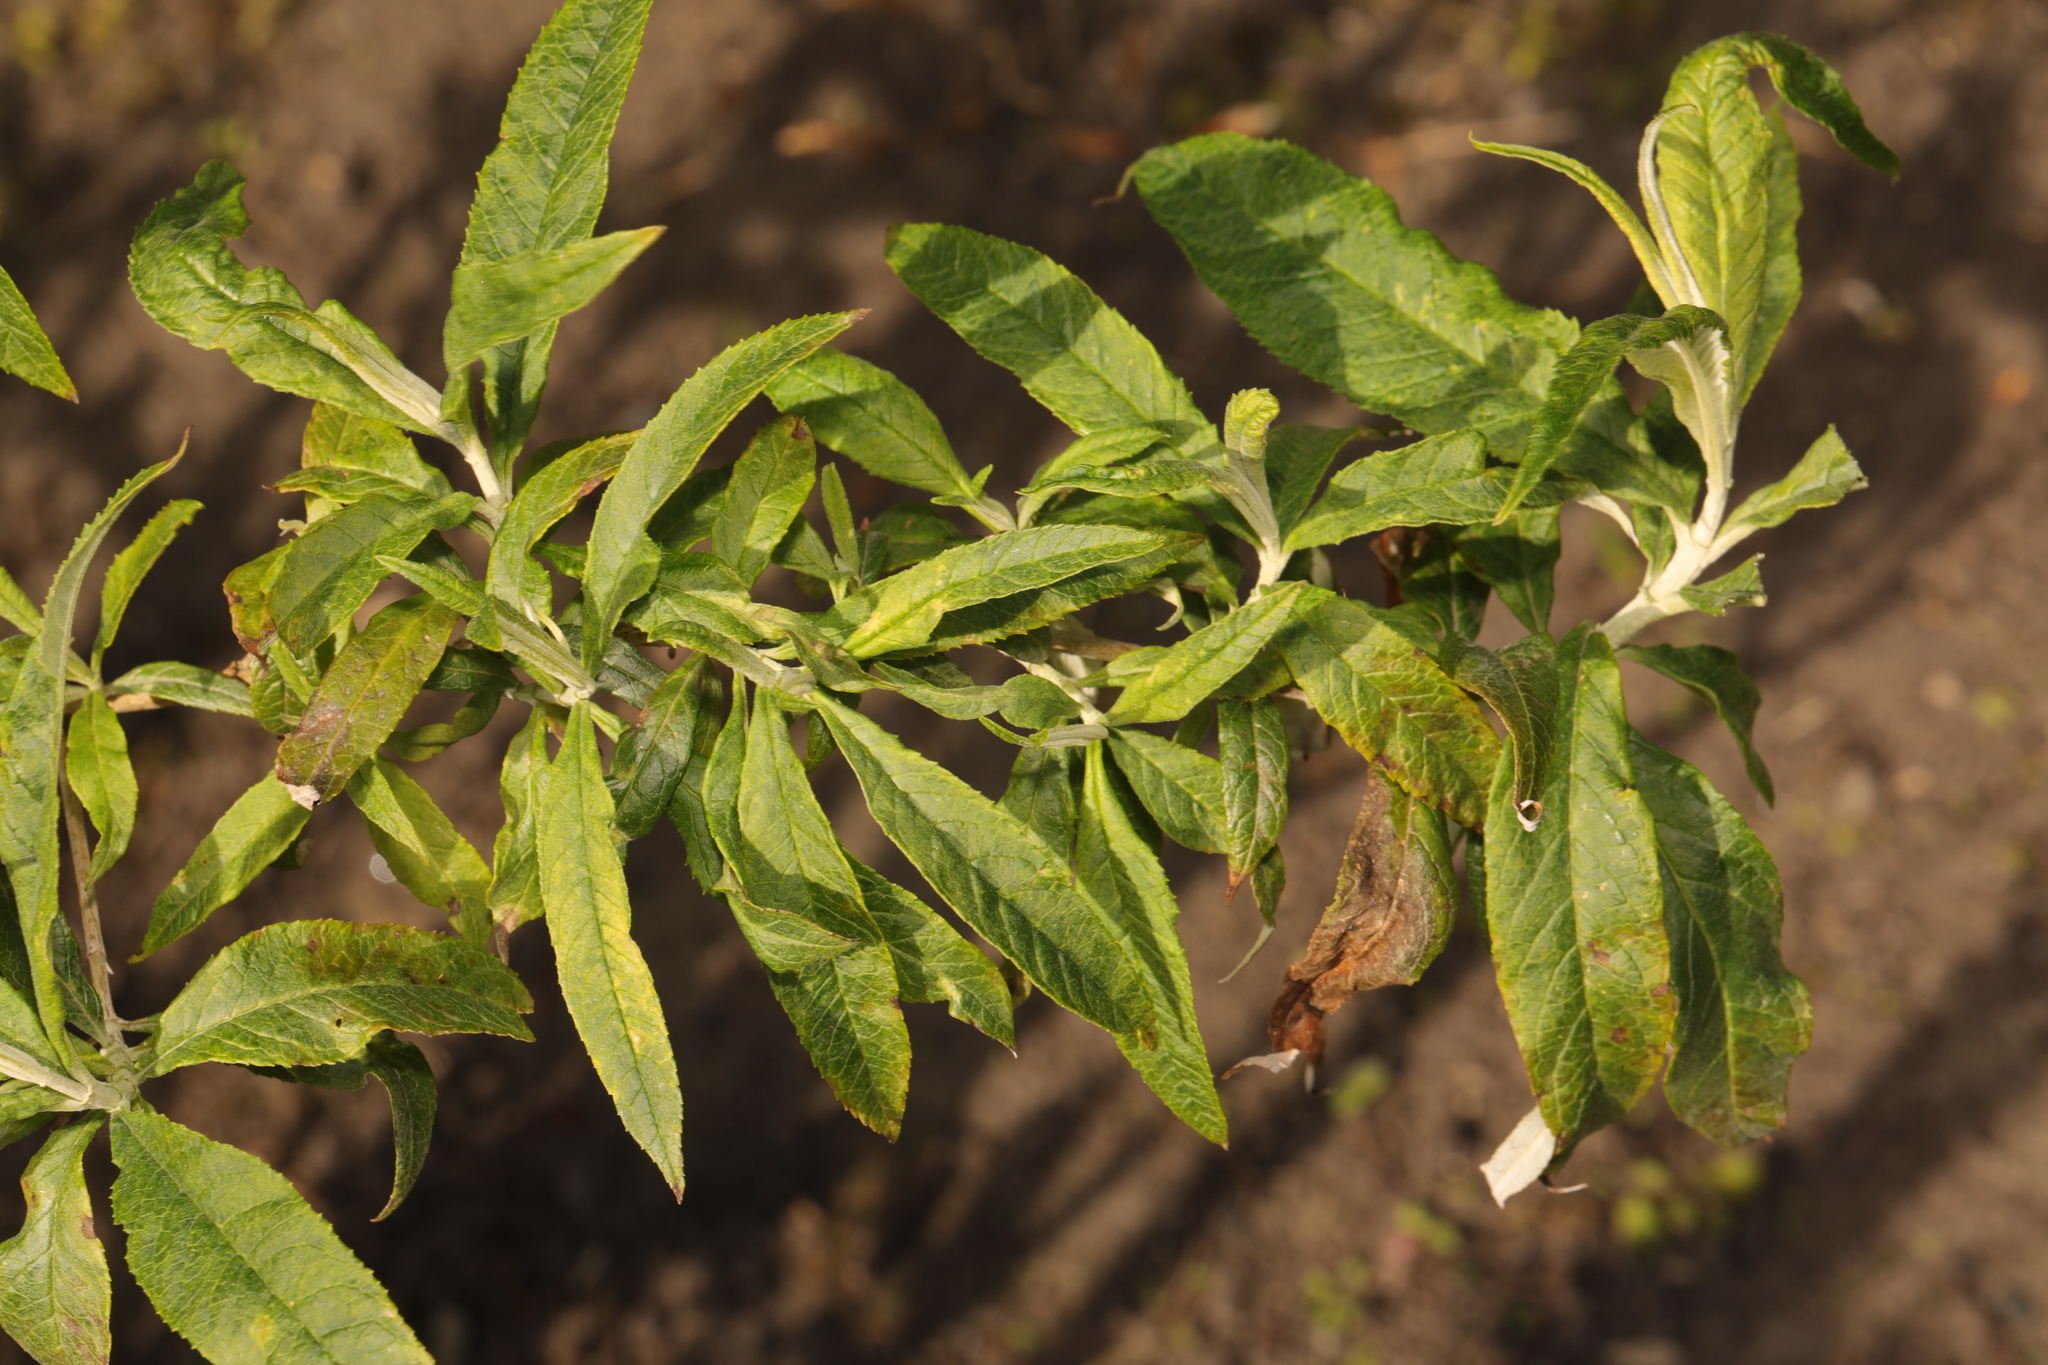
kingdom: Plantae
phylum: Tracheophyta
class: Magnoliopsida
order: Lamiales
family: Scrophulariaceae
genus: Buddleja
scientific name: Buddleja davidii
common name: Butterfly-bush
